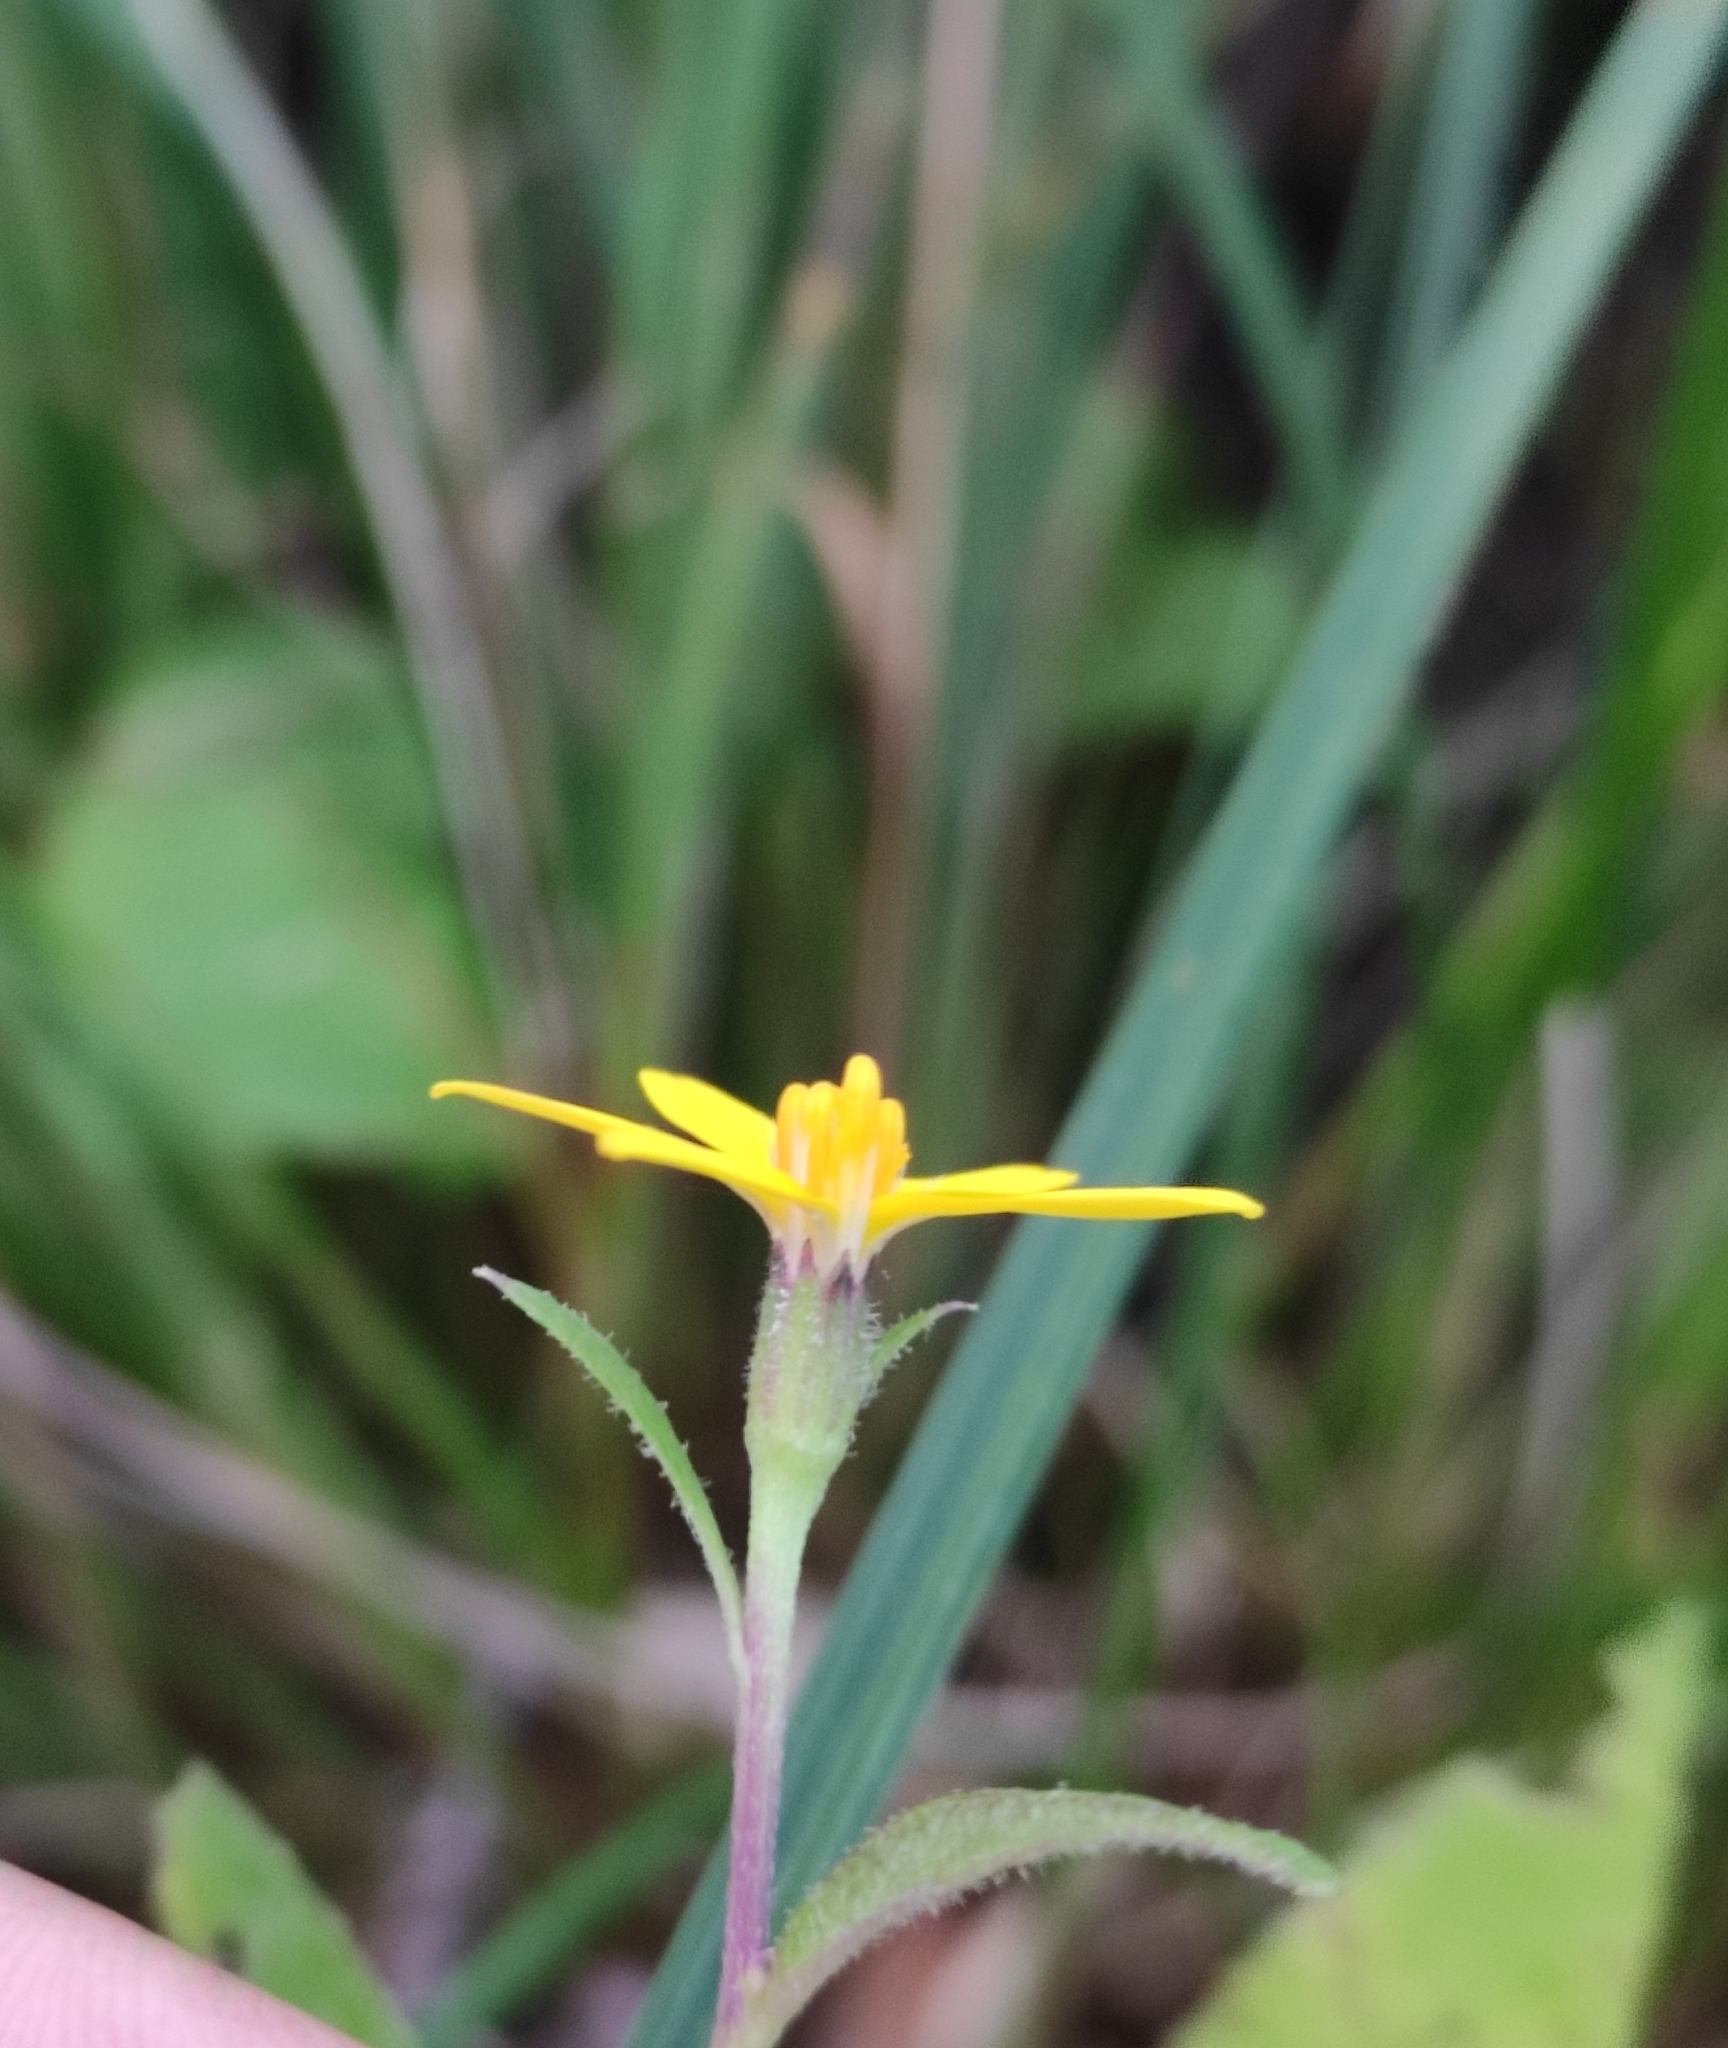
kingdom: Plantae
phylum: Tracheophyta
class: Magnoliopsida
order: Asterales
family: Asteraceae
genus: Senecio
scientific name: Senecio nemorensis
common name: Alpine ragwort
